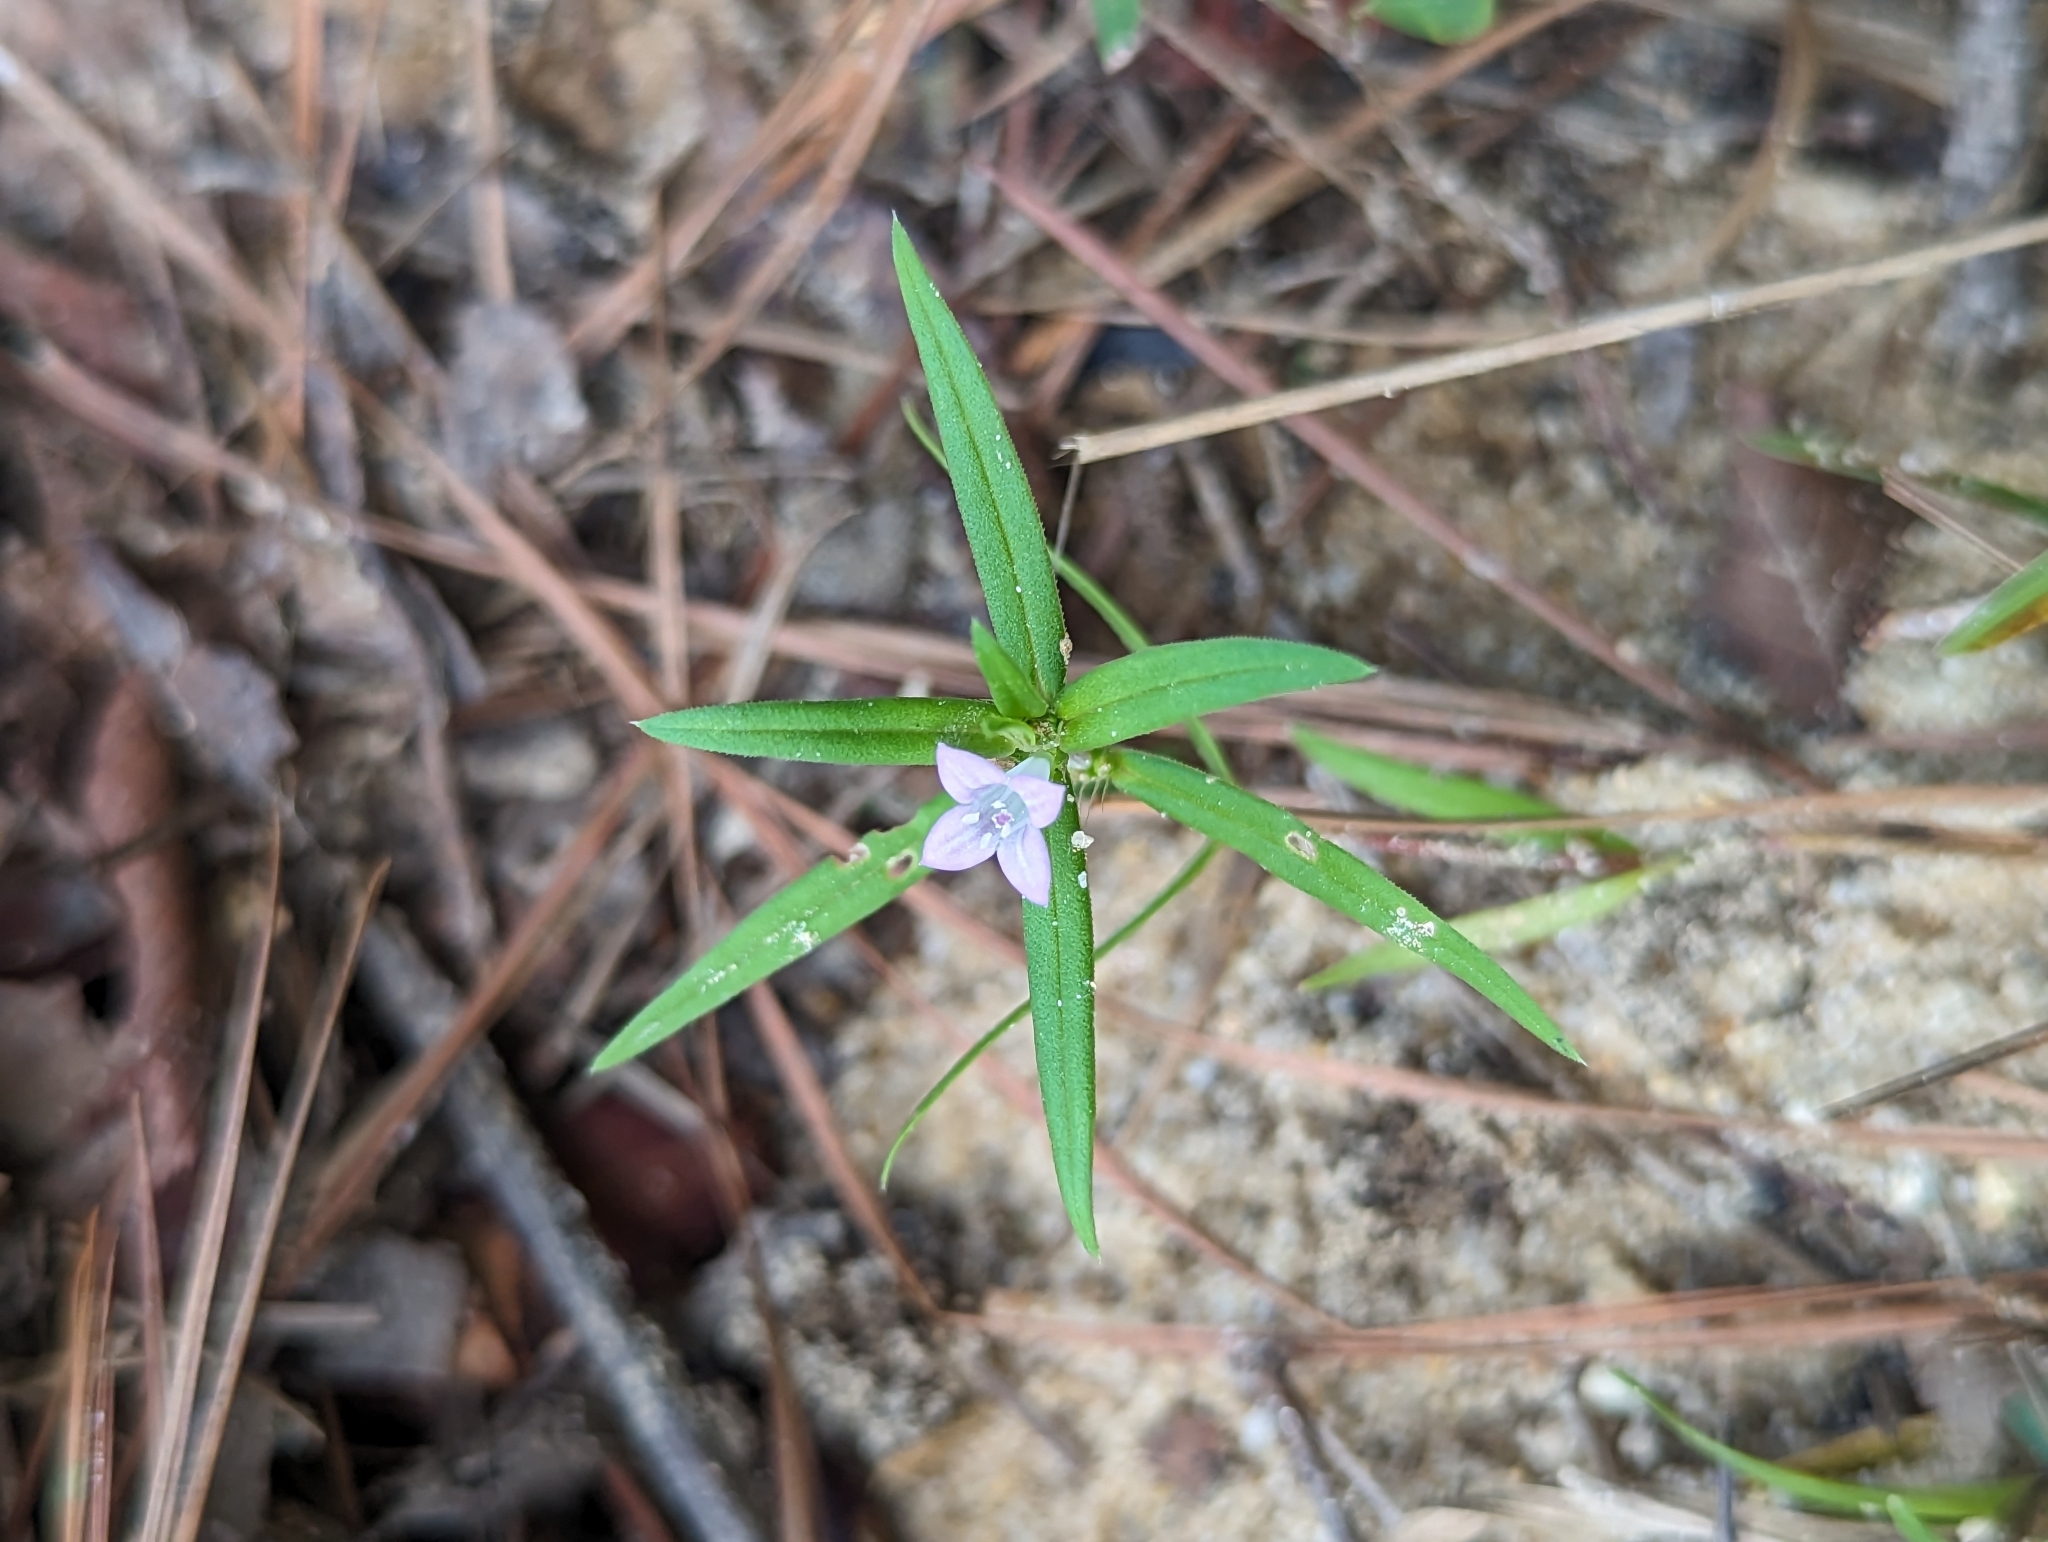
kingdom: Plantae
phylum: Tracheophyta
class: Magnoliopsida
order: Gentianales
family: Rubiaceae
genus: Hexasepalum
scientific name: Hexasepalum teres
